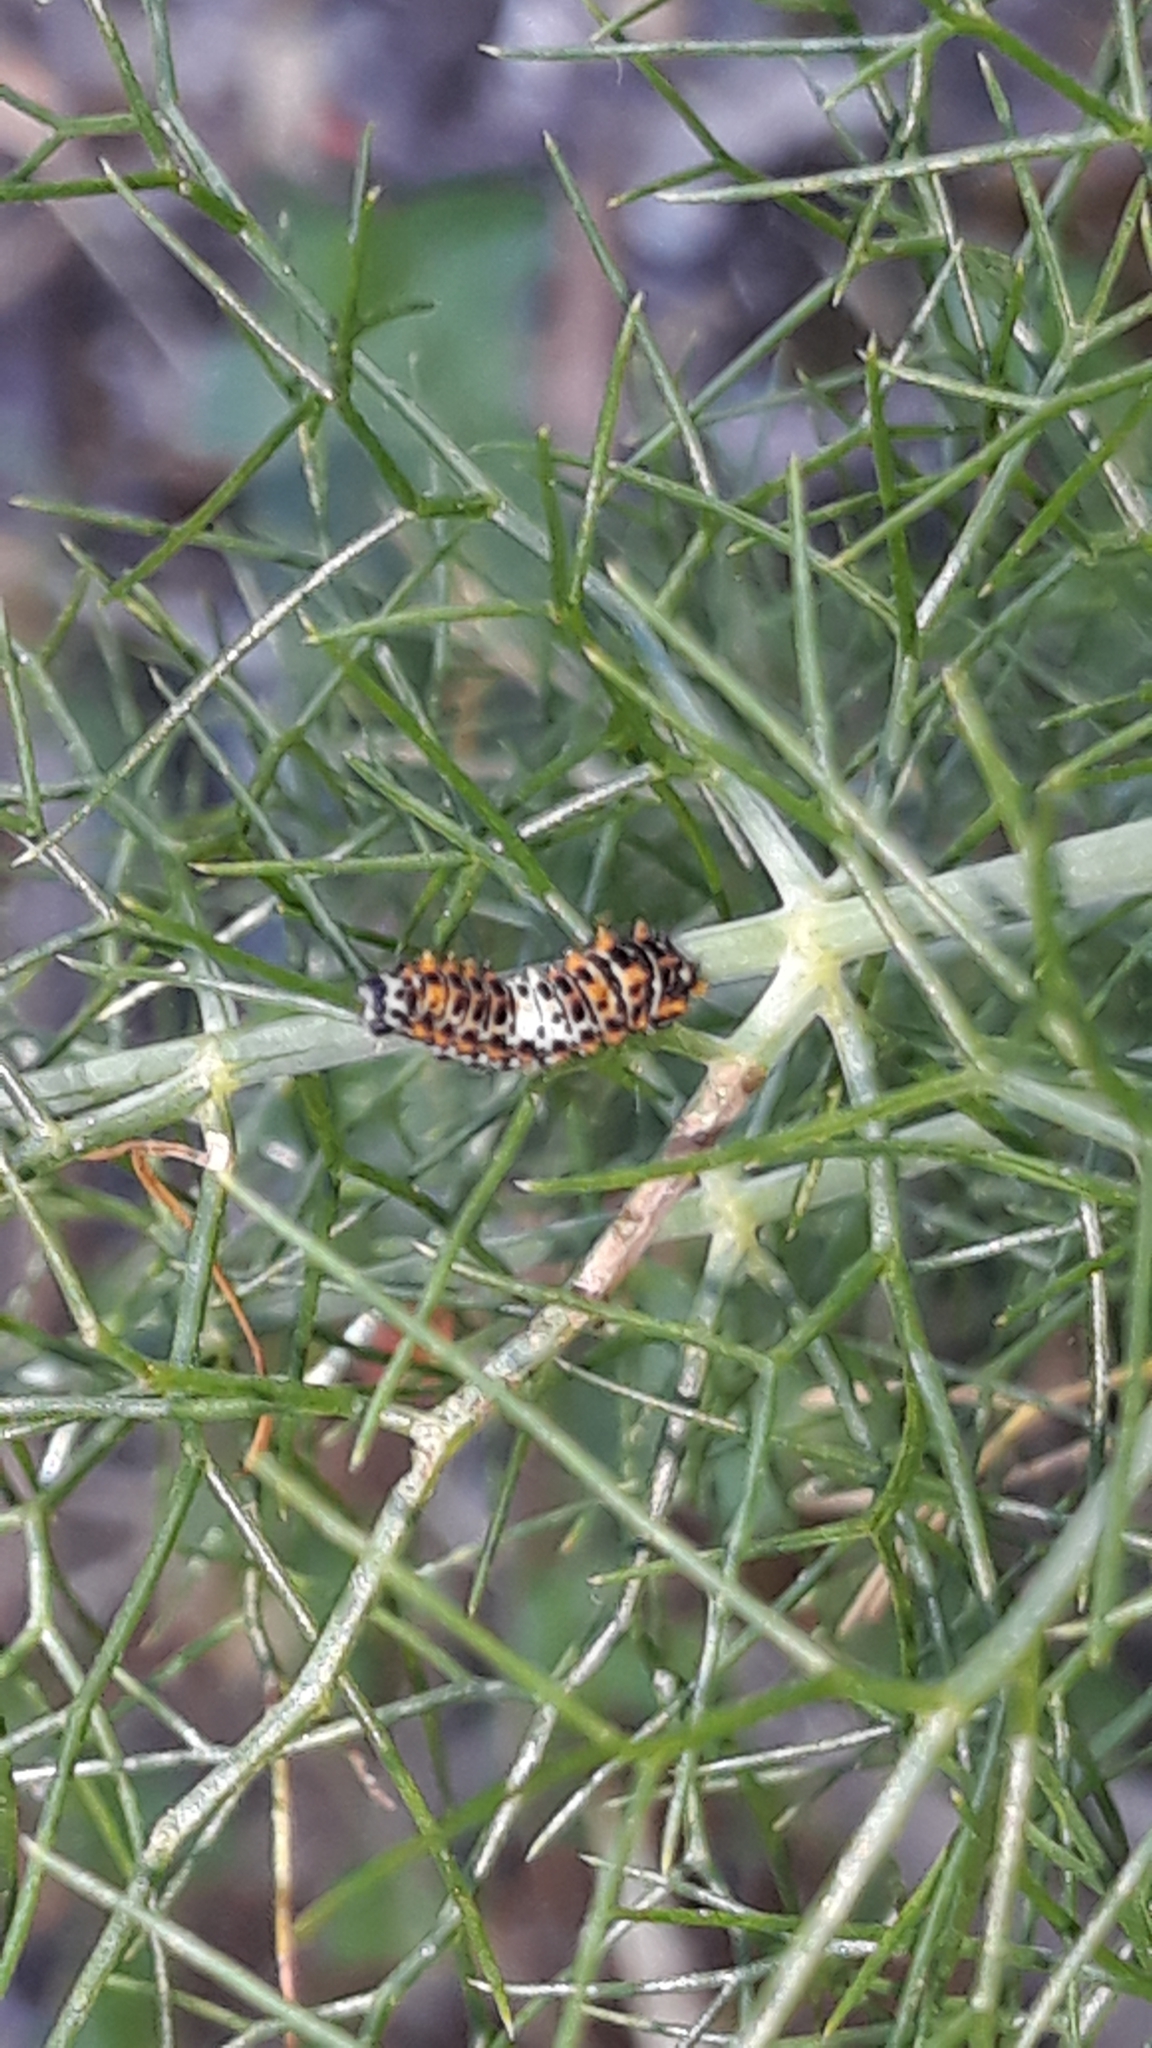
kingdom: Animalia
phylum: Arthropoda
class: Insecta
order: Lepidoptera
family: Papilionidae
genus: Papilio
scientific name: Papilio machaon
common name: Swallowtail
